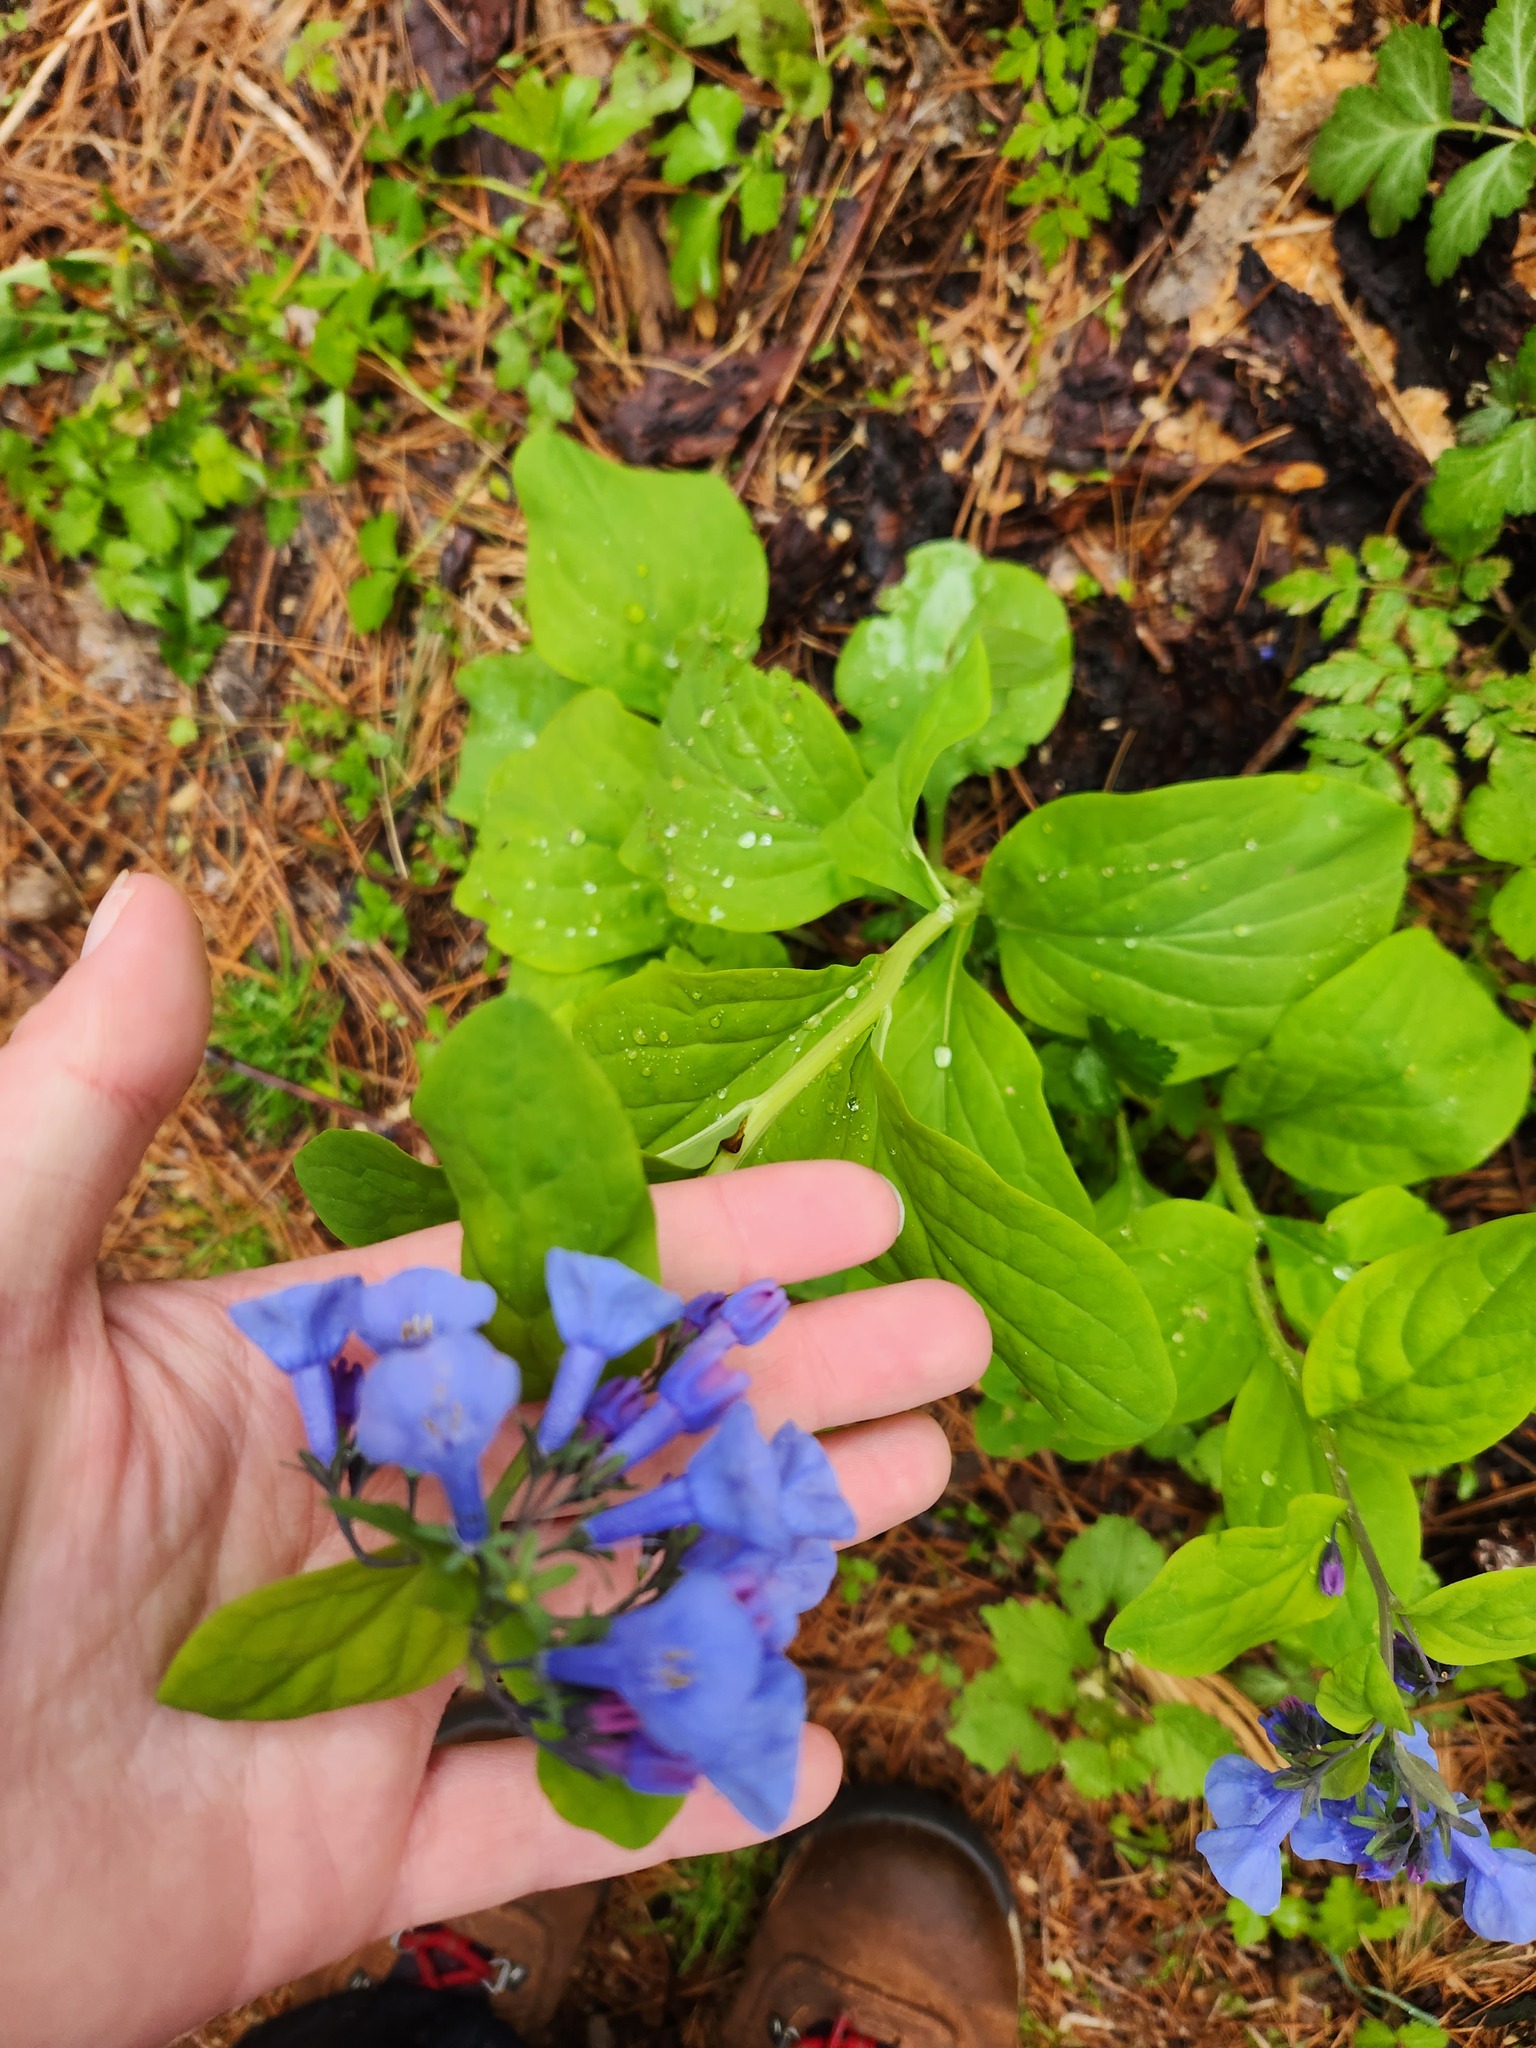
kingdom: Plantae
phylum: Tracheophyta
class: Magnoliopsida
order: Boraginales
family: Boraginaceae
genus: Mertensia
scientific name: Mertensia virginica
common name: Virginia bluebells
